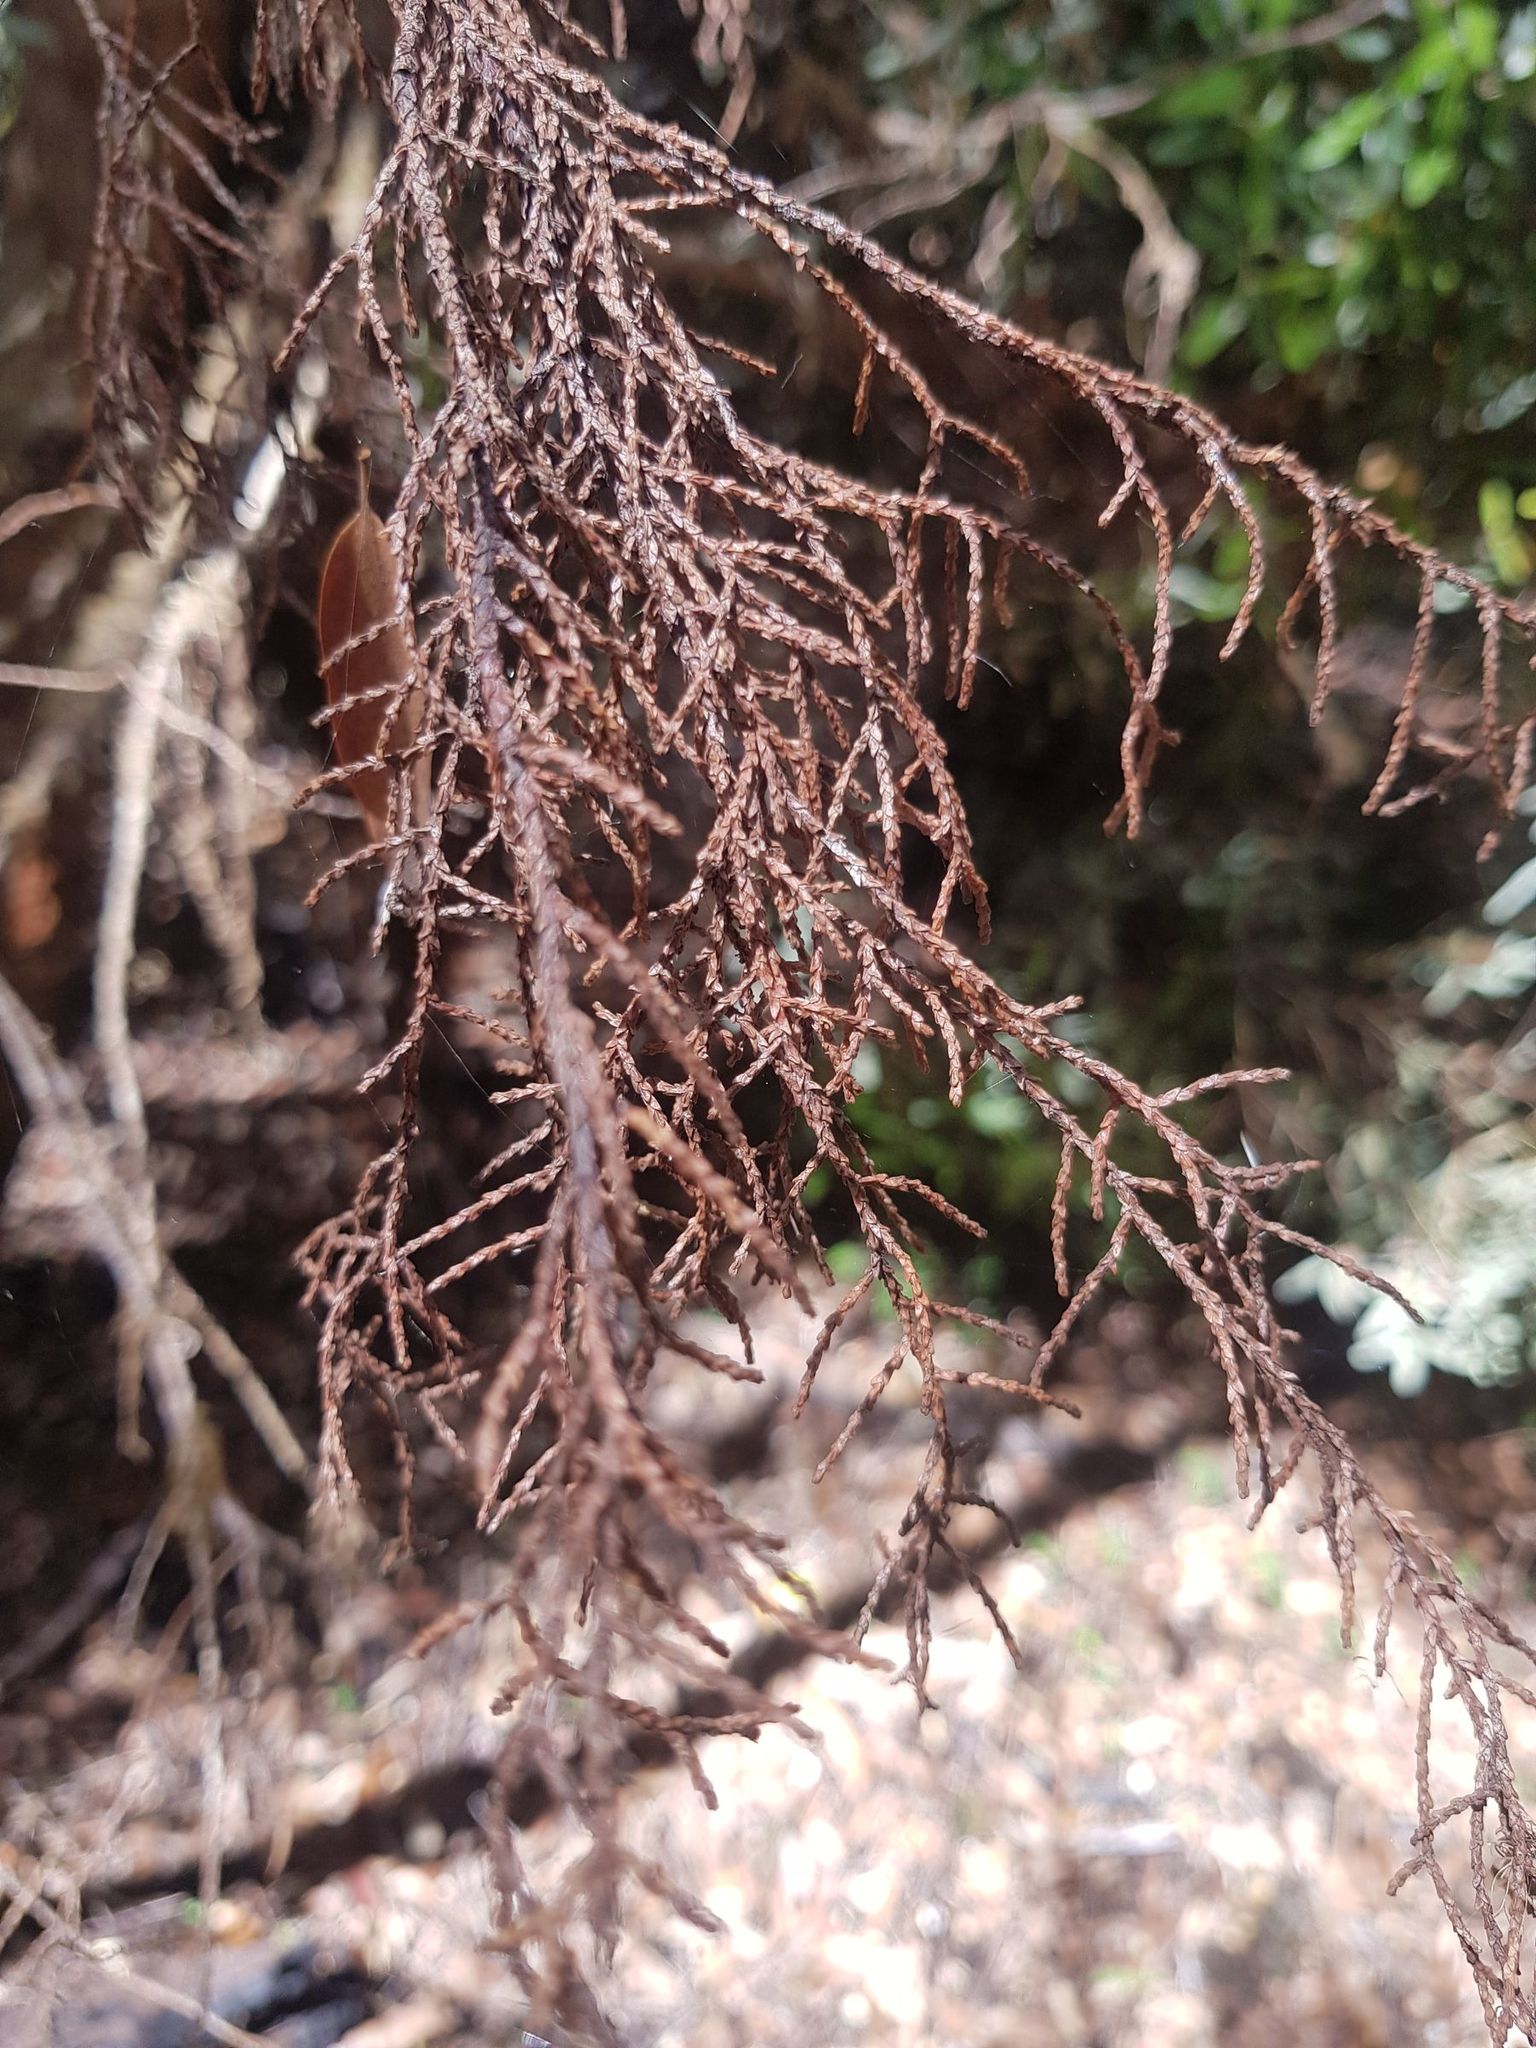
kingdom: Plantae
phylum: Tracheophyta
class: Pinopsida
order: Pinales
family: Podocarpaceae
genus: Lagarostrobos
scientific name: Lagarostrobos franklinii
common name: Huon pine
